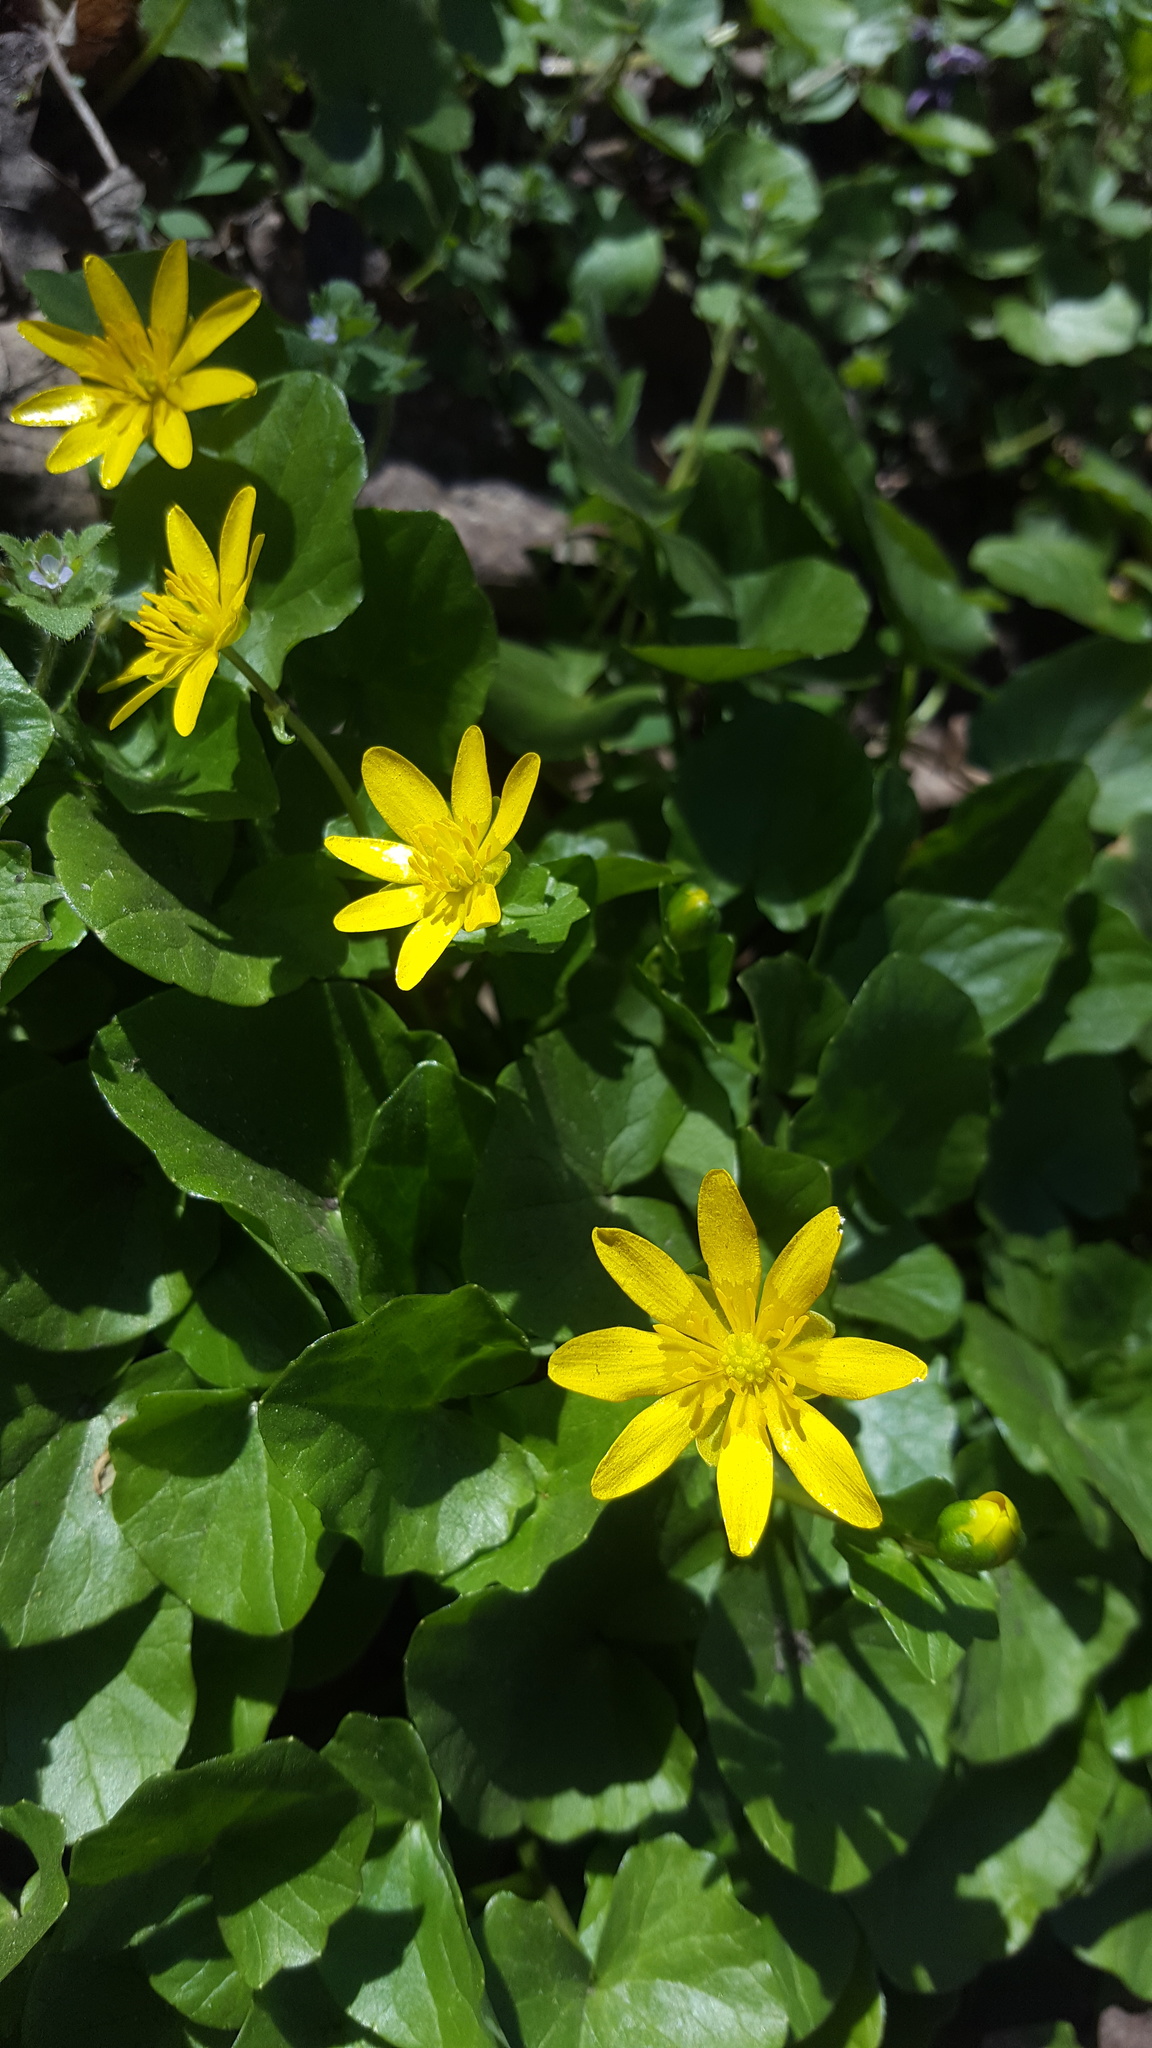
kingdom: Plantae
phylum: Tracheophyta
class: Magnoliopsida
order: Ranunculales
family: Ranunculaceae
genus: Ficaria
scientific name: Ficaria verna
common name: Lesser celandine
